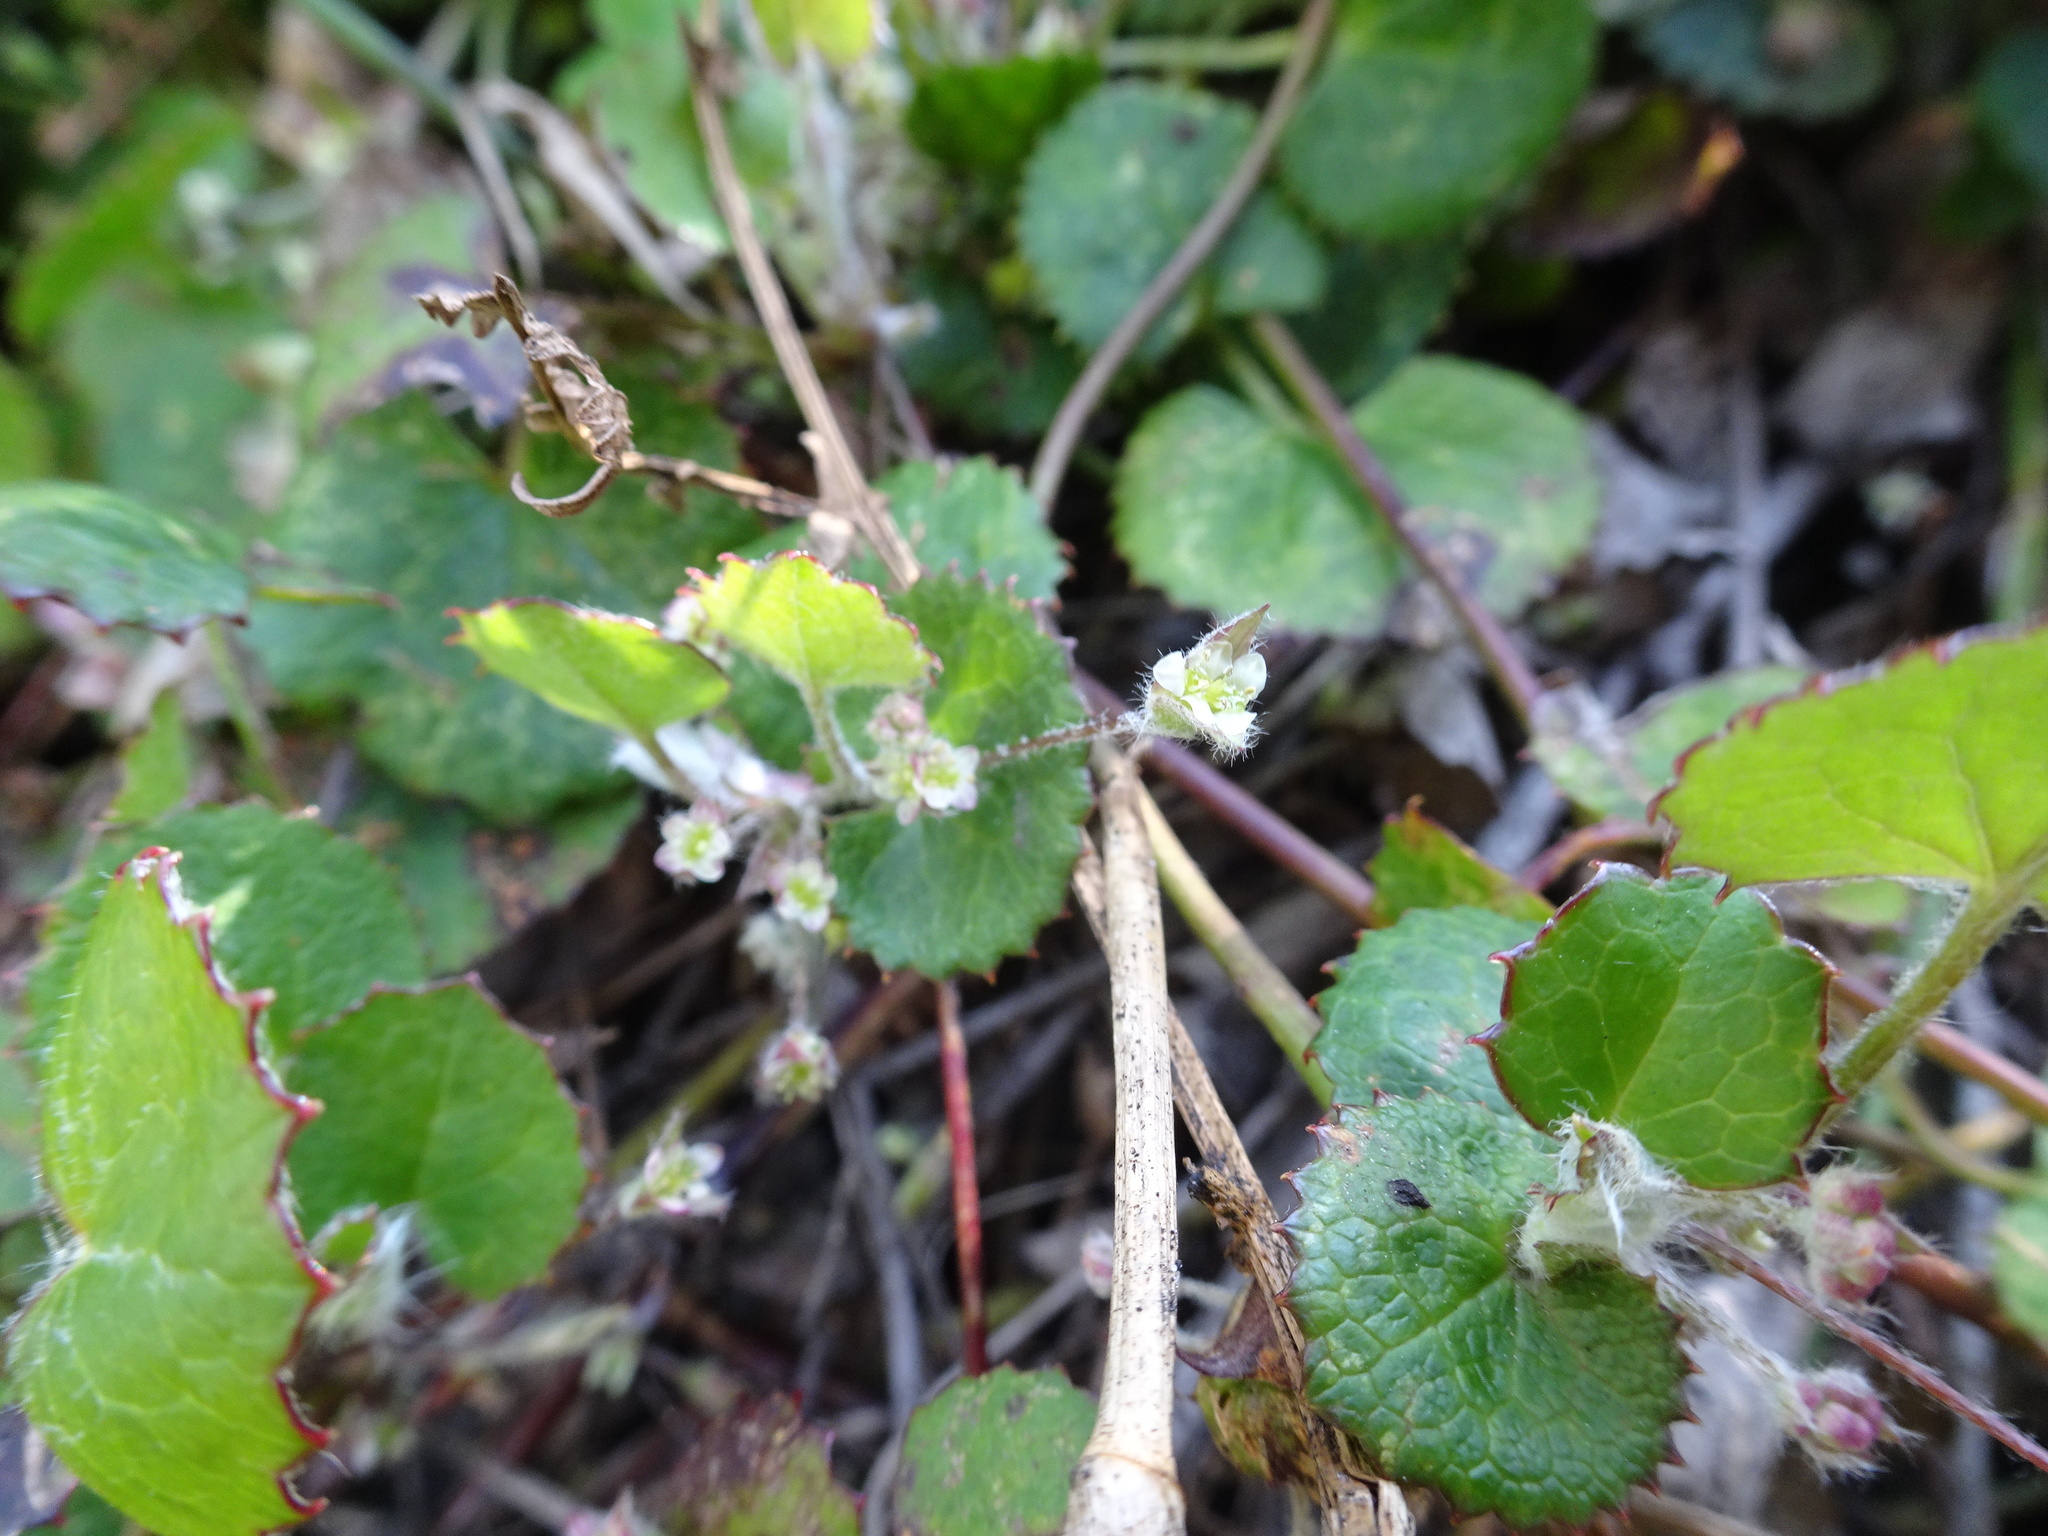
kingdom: Plantae
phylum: Tracheophyta
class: Magnoliopsida
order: Apiales
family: Apiaceae
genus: Centella
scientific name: Centella eriantha
